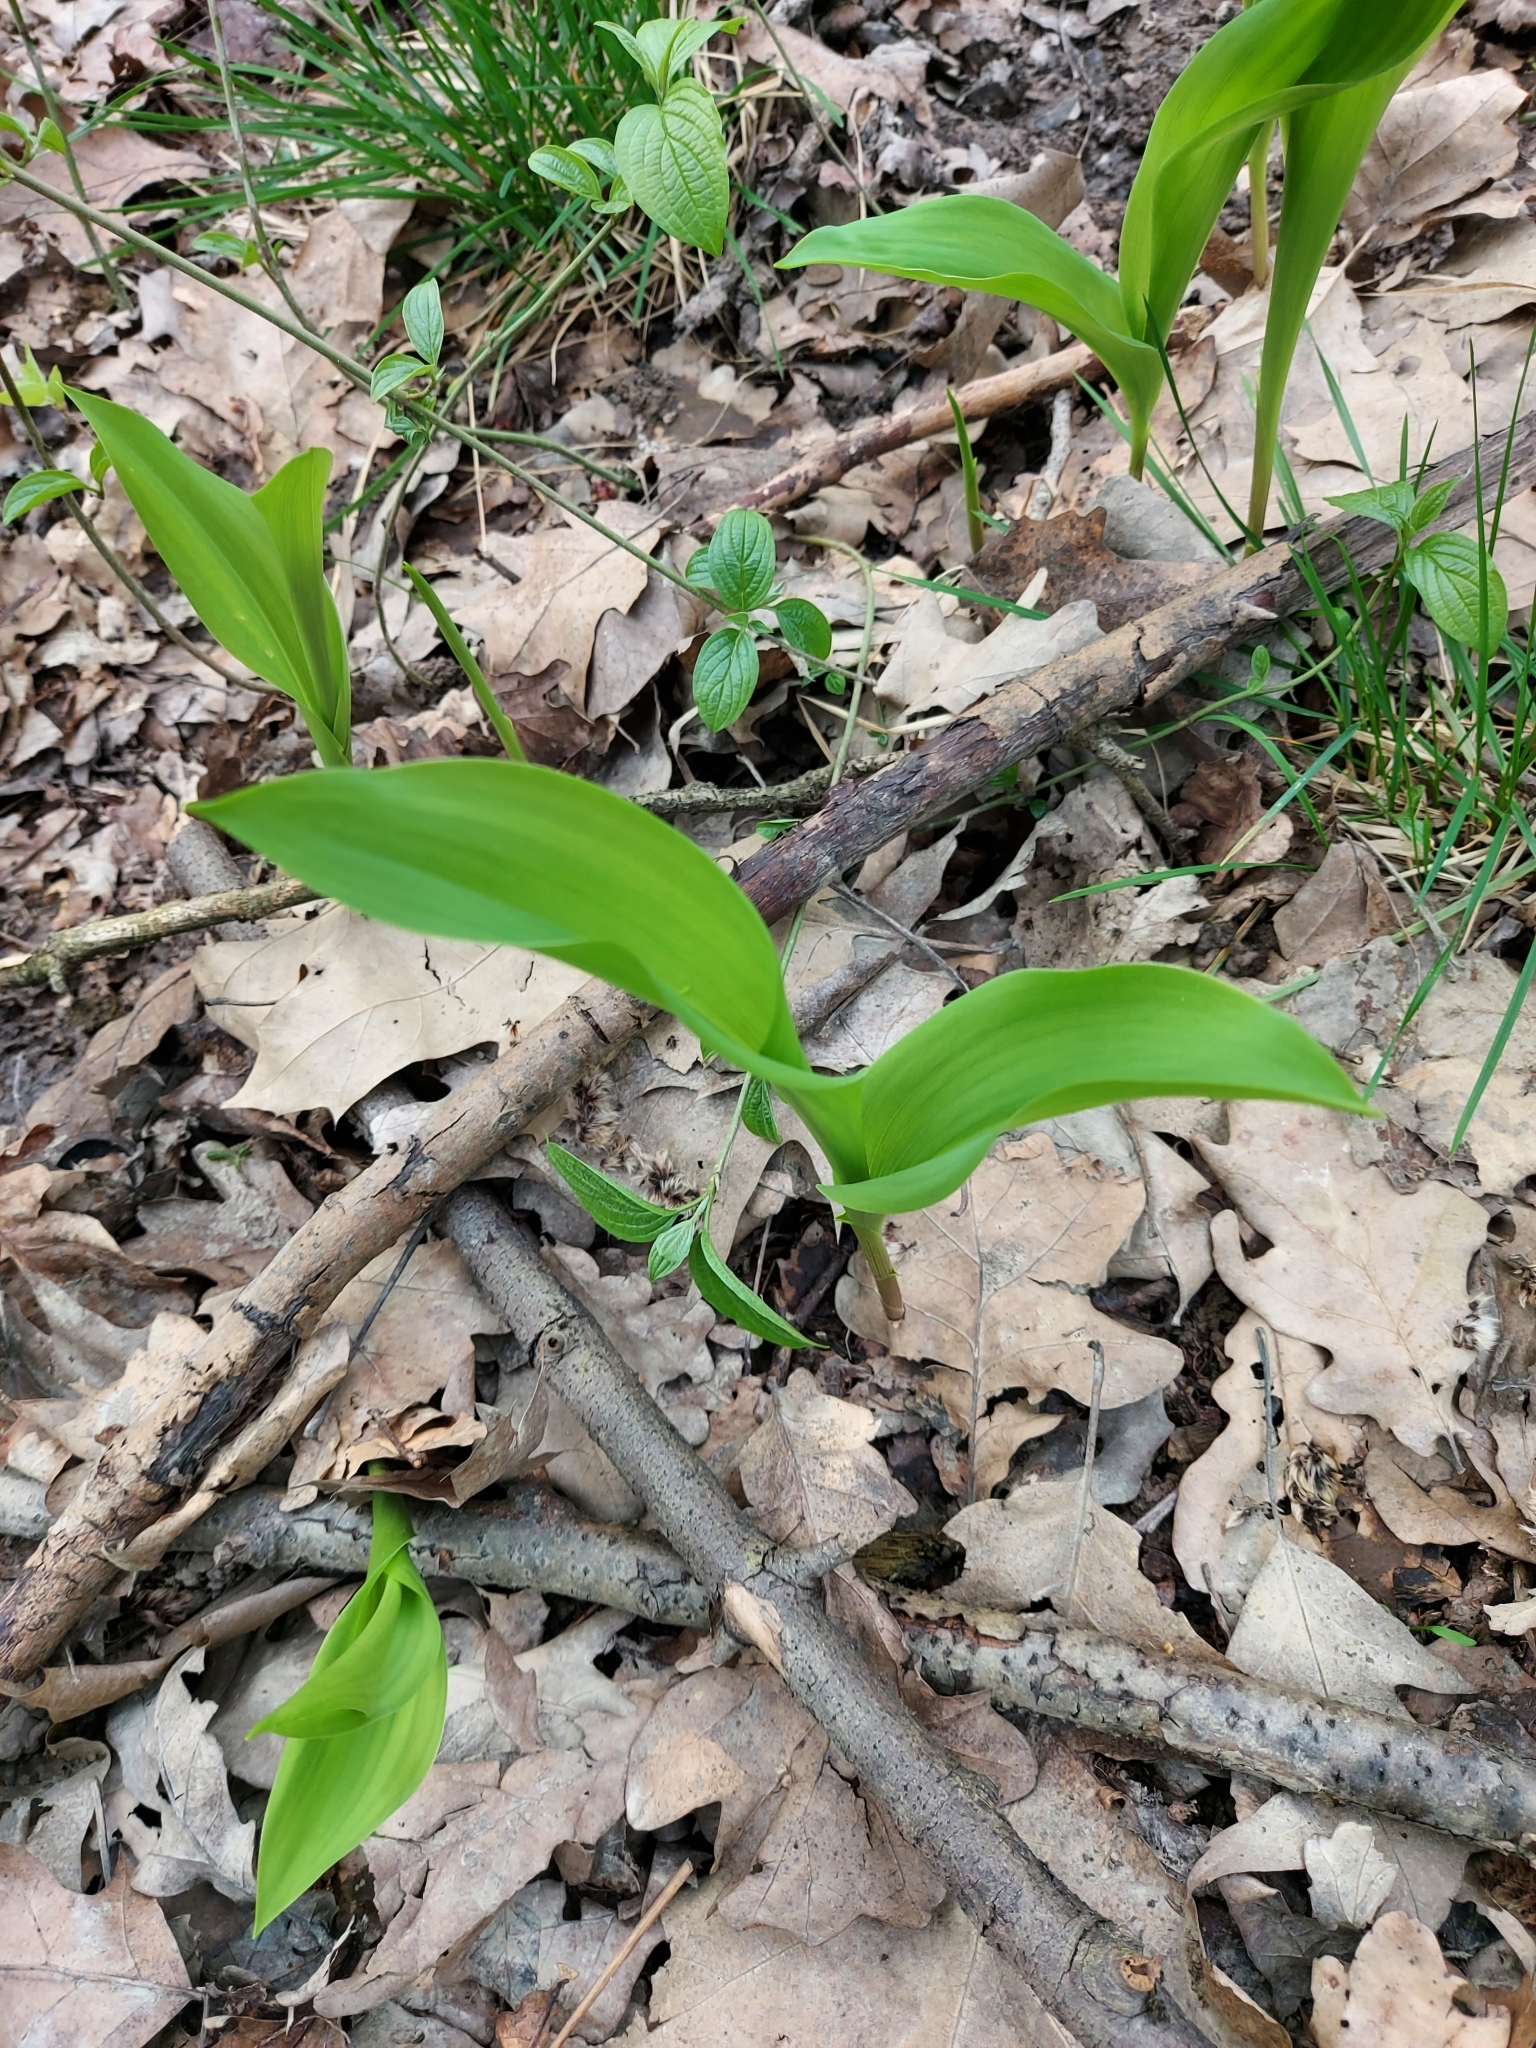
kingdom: Plantae
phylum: Tracheophyta
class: Liliopsida
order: Asparagales
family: Asparagaceae
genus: Convallaria
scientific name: Convallaria majalis
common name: Lily-of-the-valley
